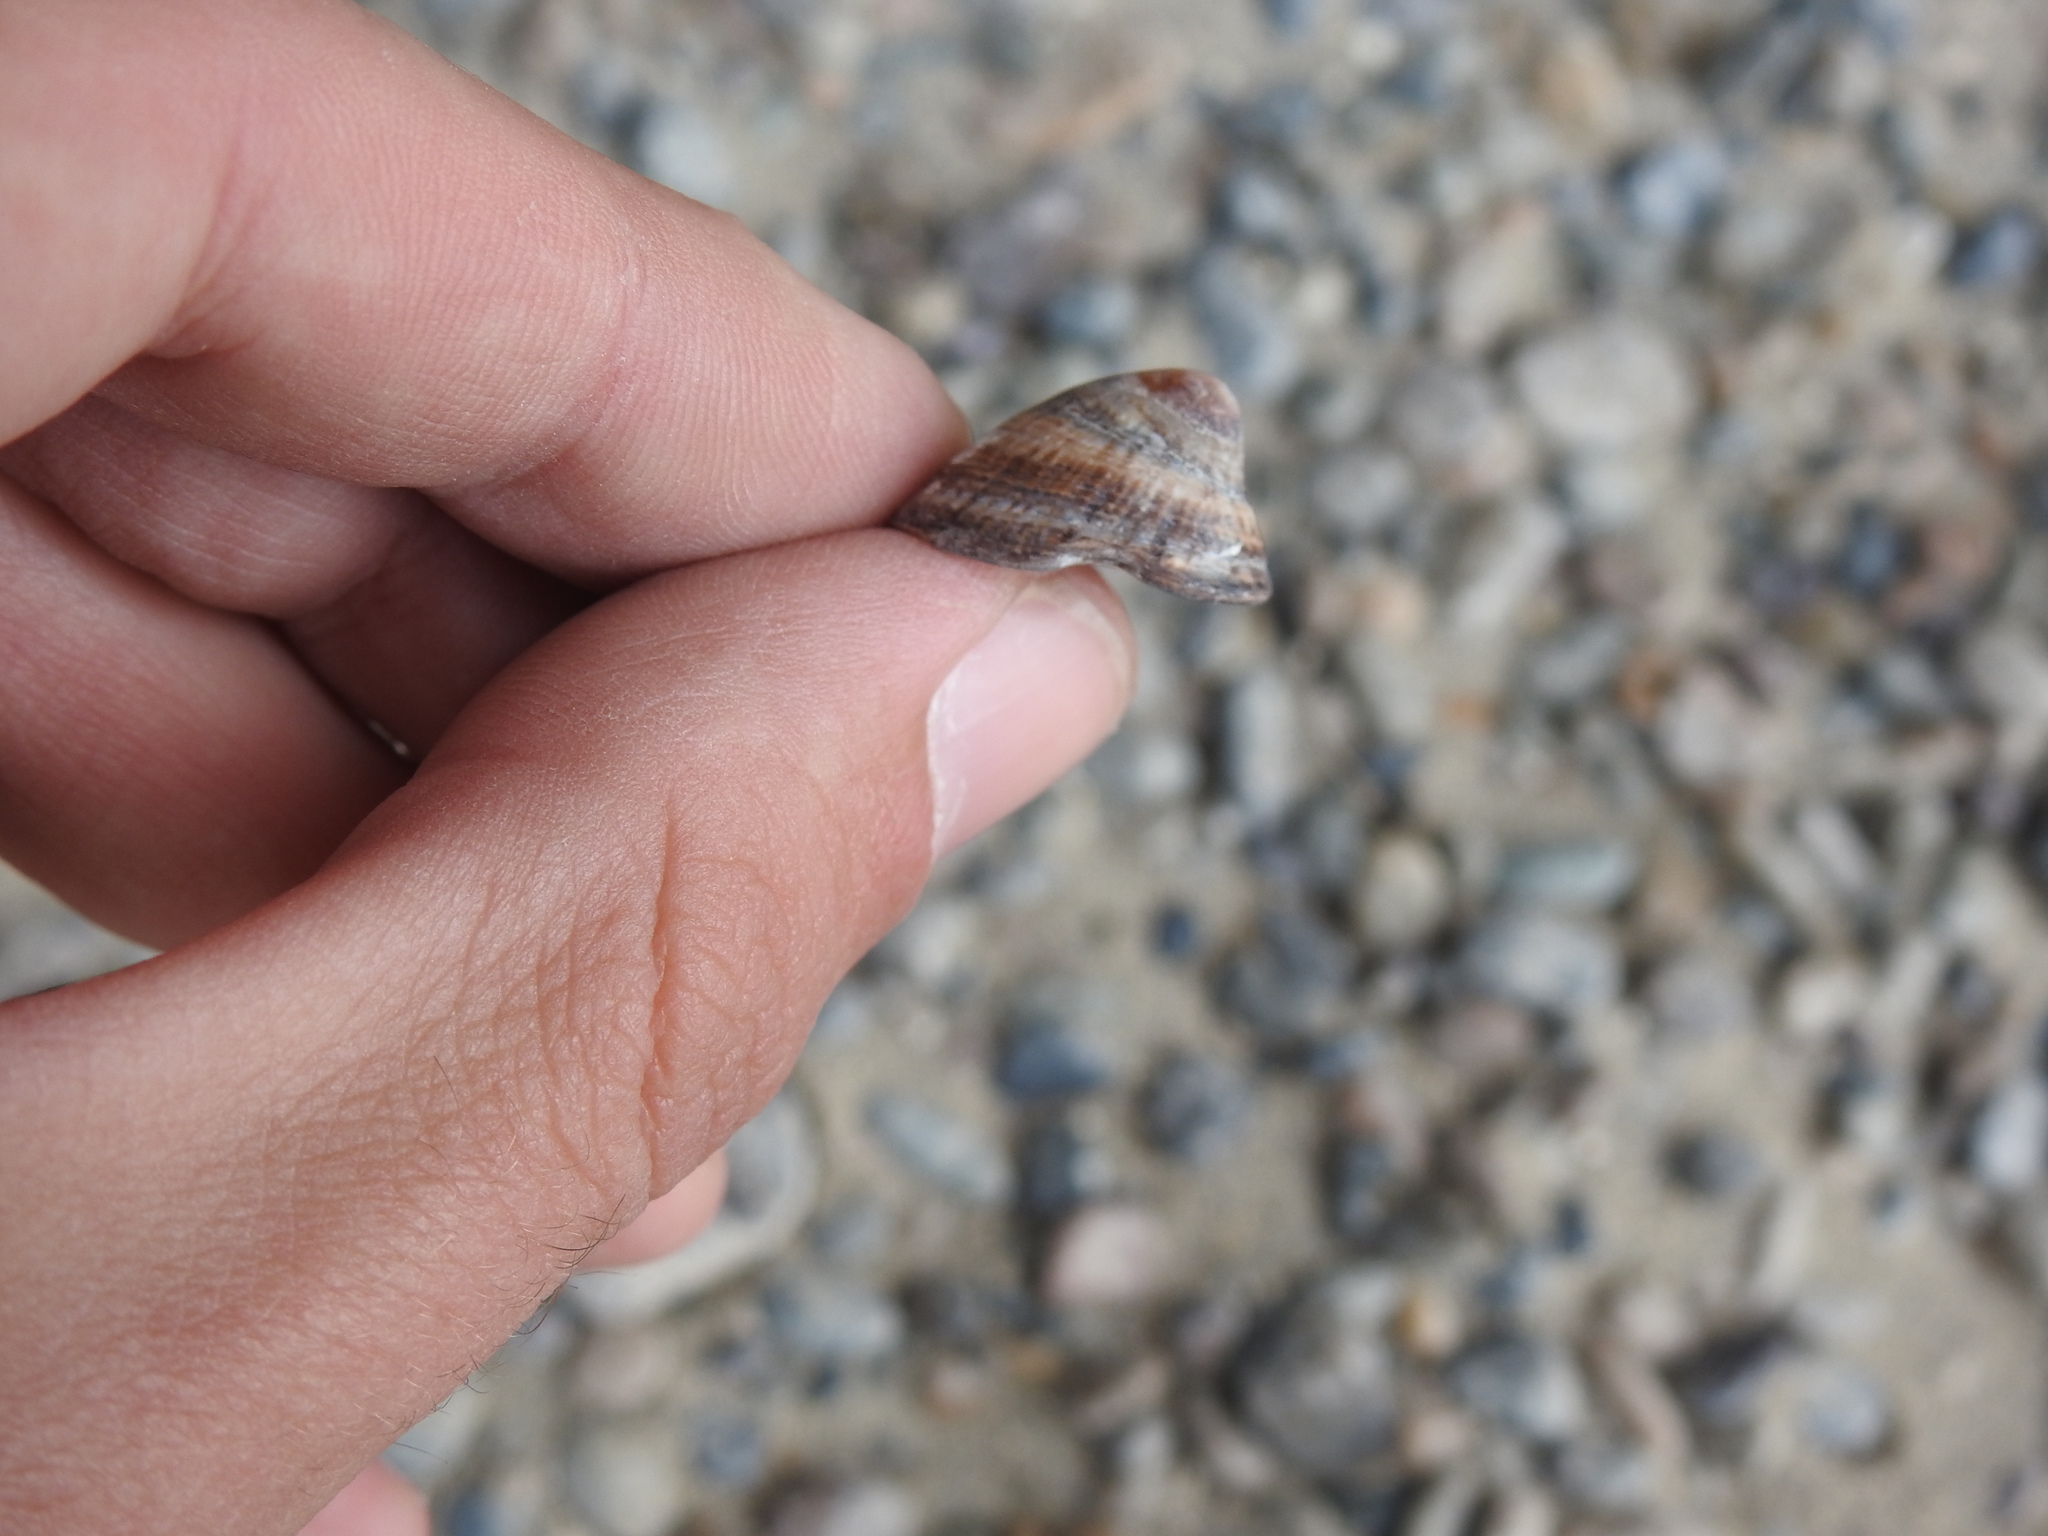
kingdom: Animalia
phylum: Mollusca
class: Gastropoda
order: Siphonariida
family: Siphonariidae
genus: Siphonaria
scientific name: Siphonaria lessonii
